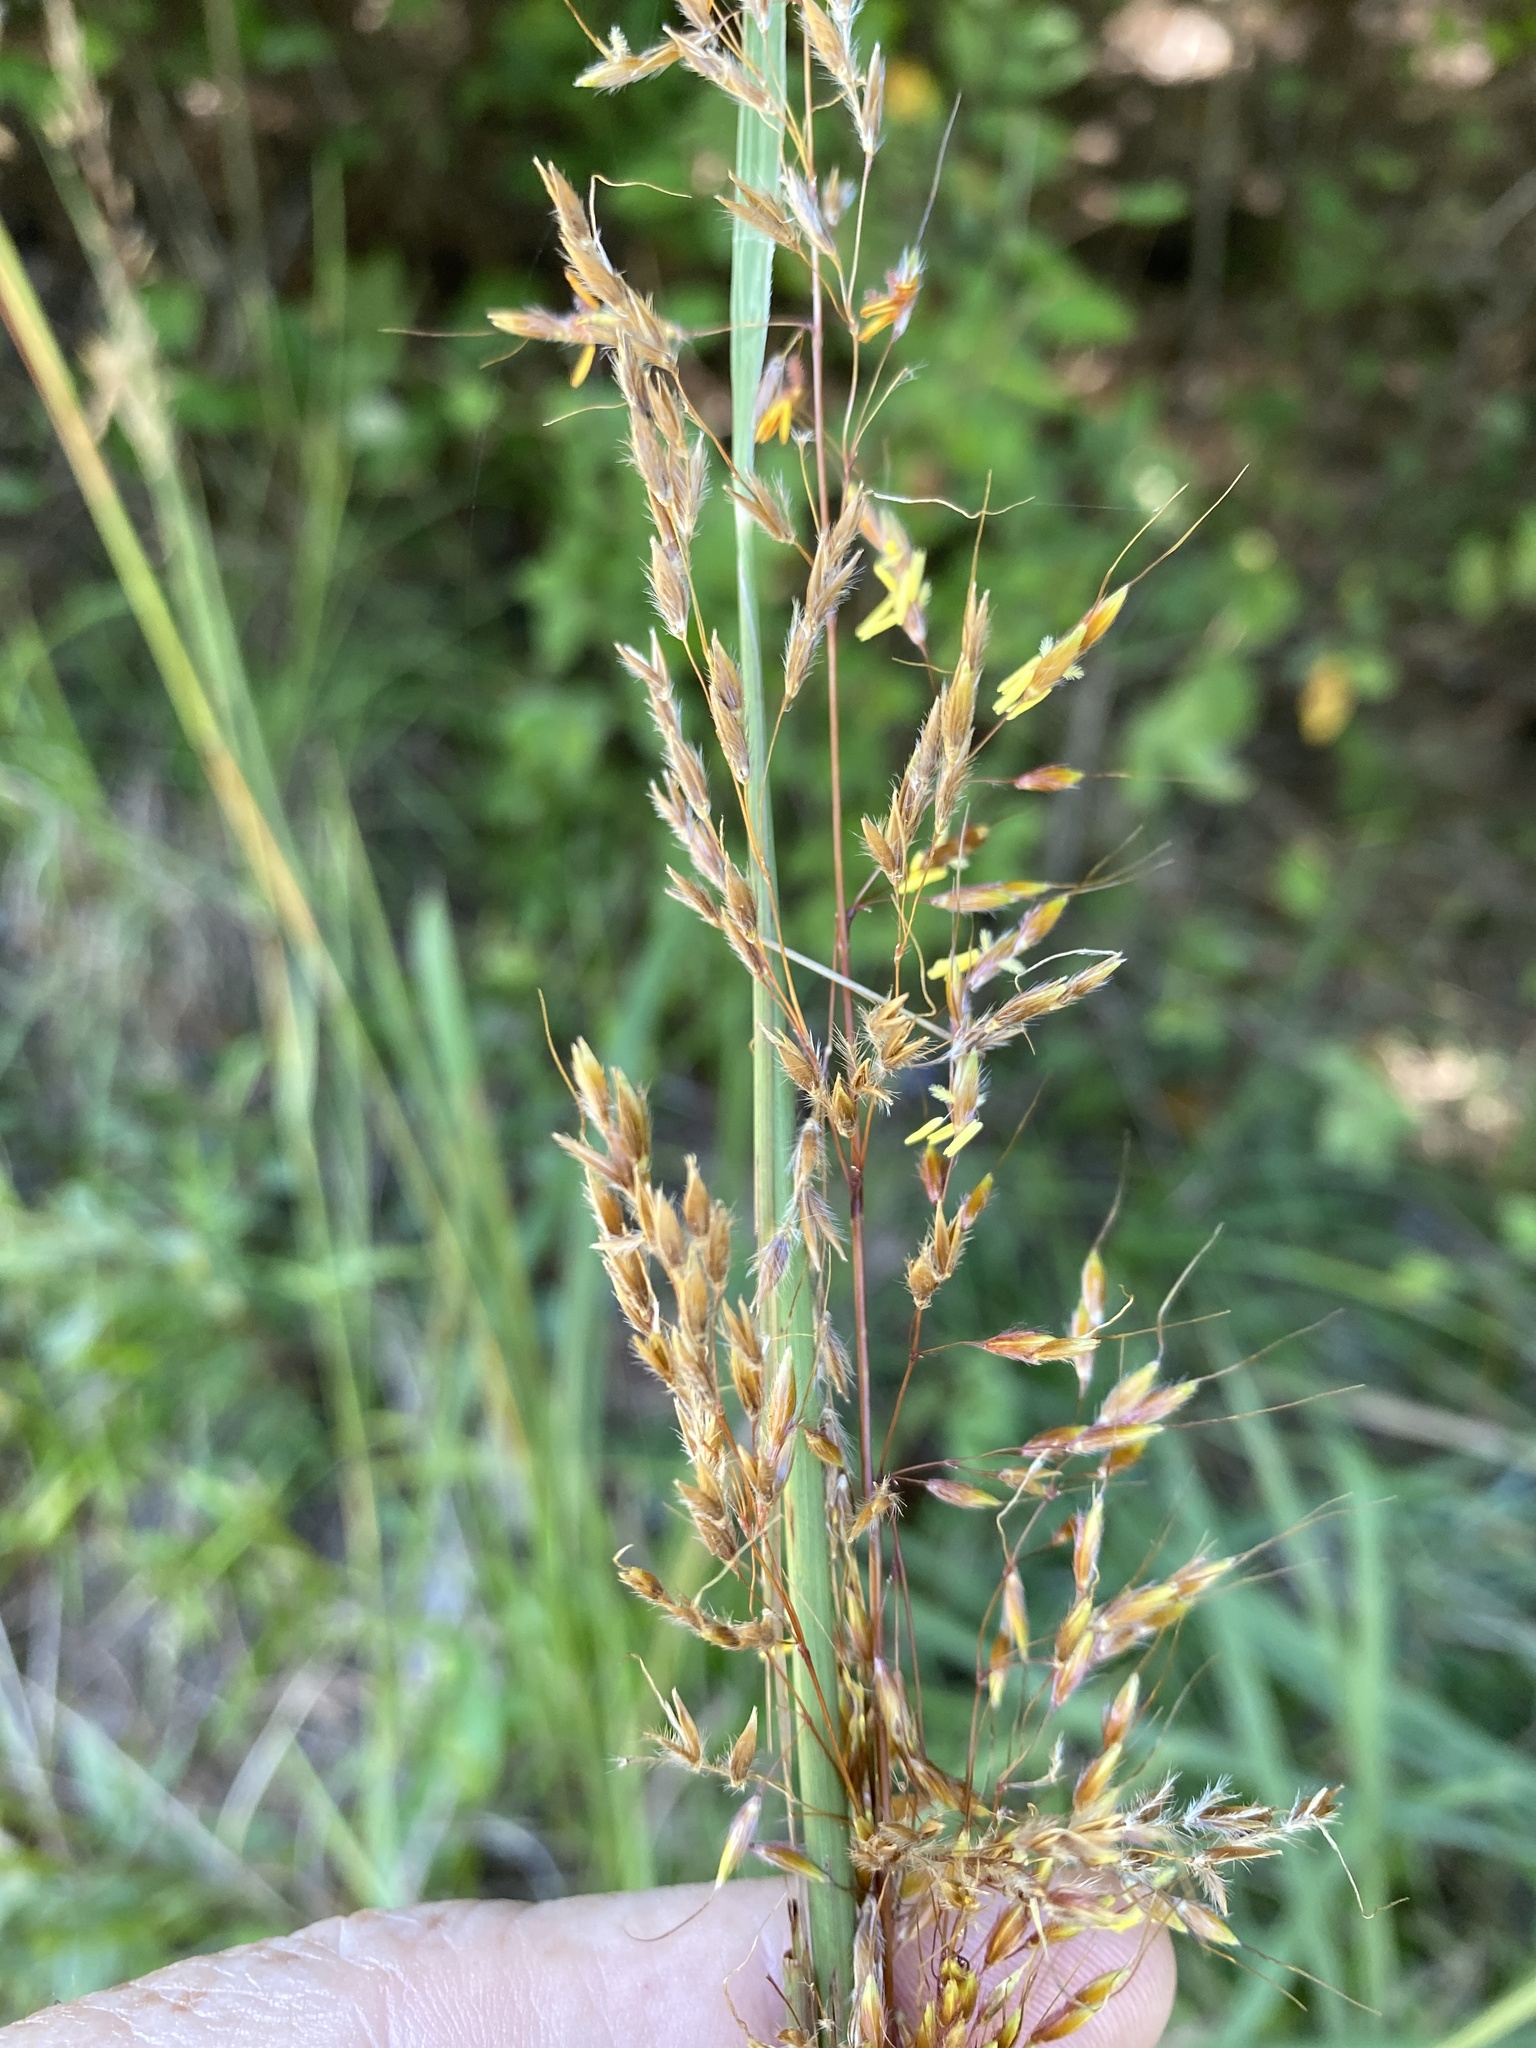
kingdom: Plantae
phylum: Tracheophyta
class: Liliopsida
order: Poales
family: Poaceae
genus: Sorghastrum
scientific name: Sorghastrum nutans
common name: Indian grass
